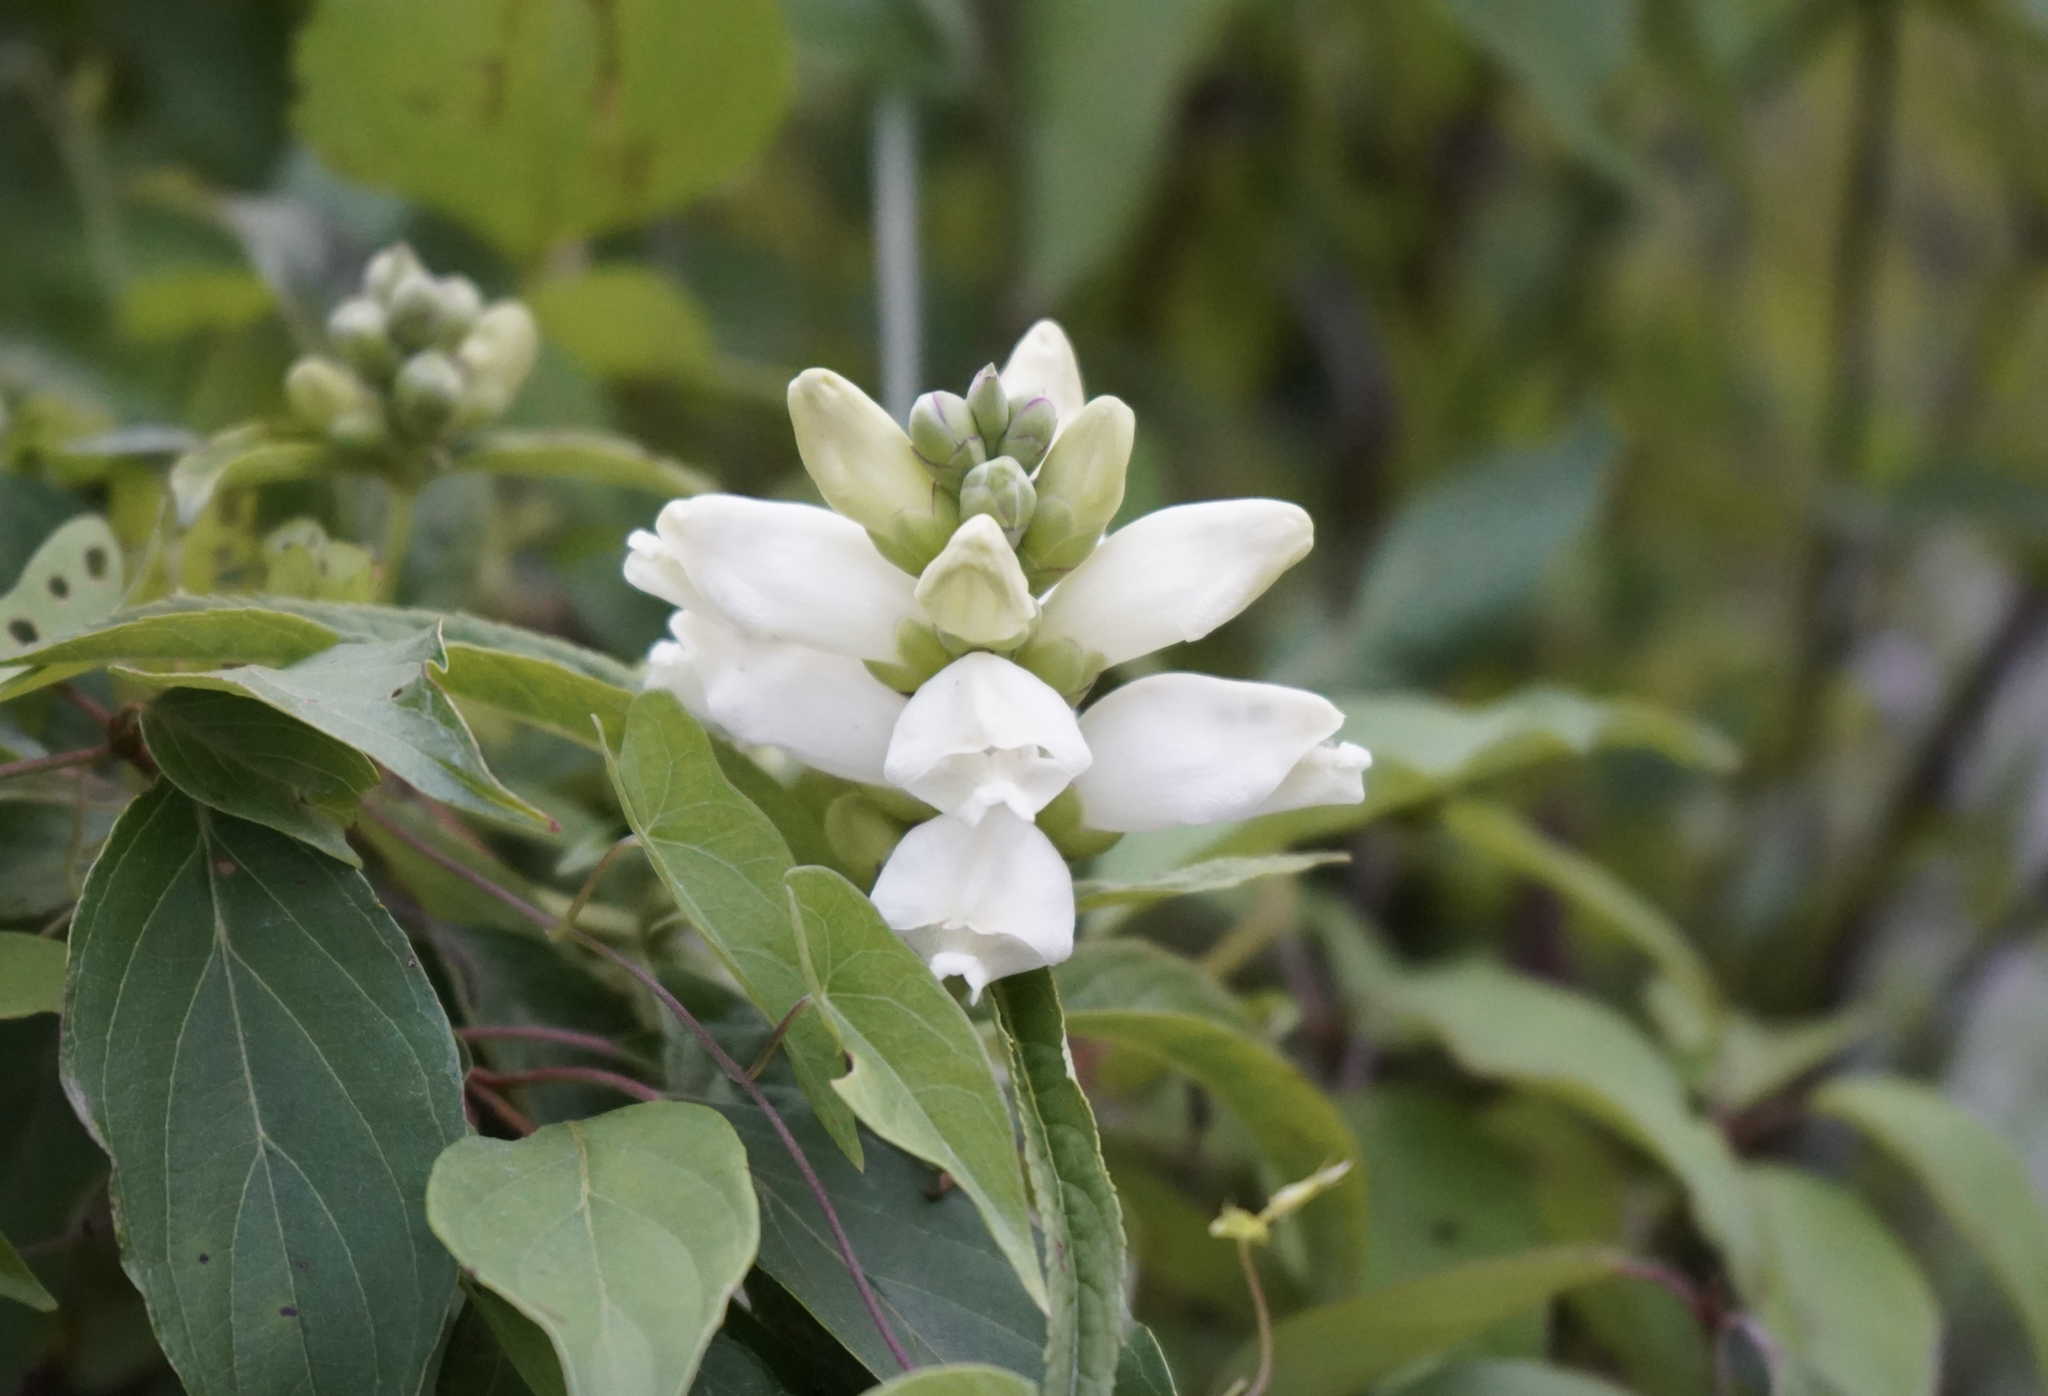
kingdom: Plantae
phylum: Tracheophyta
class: Magnoliopsida
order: Lamiales
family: Plantaginaceae
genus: Chelone
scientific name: Chelone glabra
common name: Snakehead
